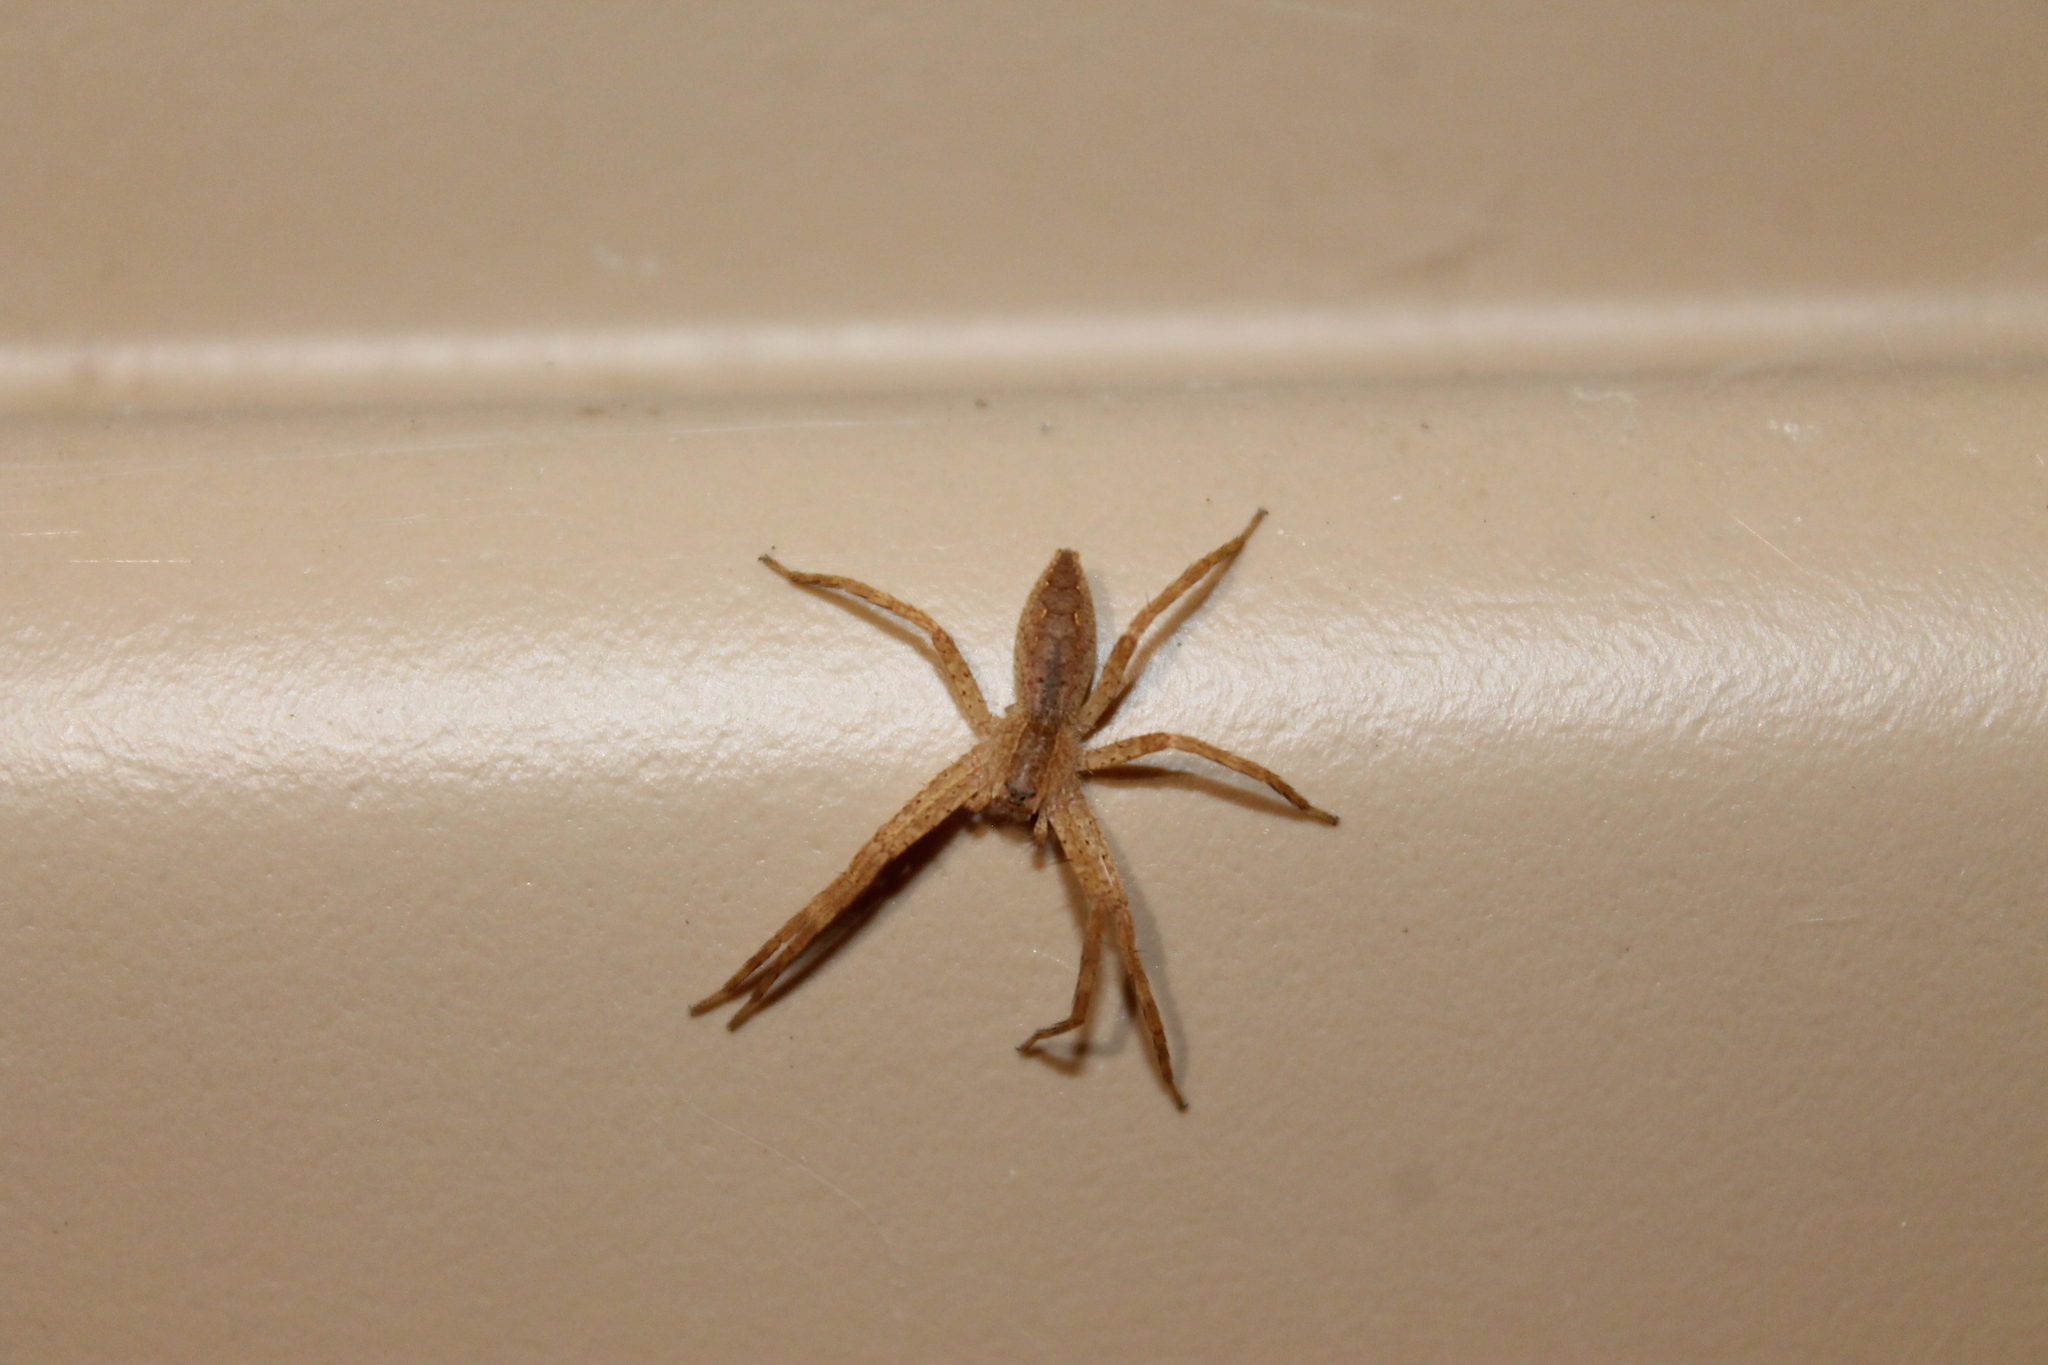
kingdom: Animalia
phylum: Arthropoda
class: Arachnida
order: Araneae
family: Pisauridae
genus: Pisaurina
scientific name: Pisaurina mira
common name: American nursery web spider
